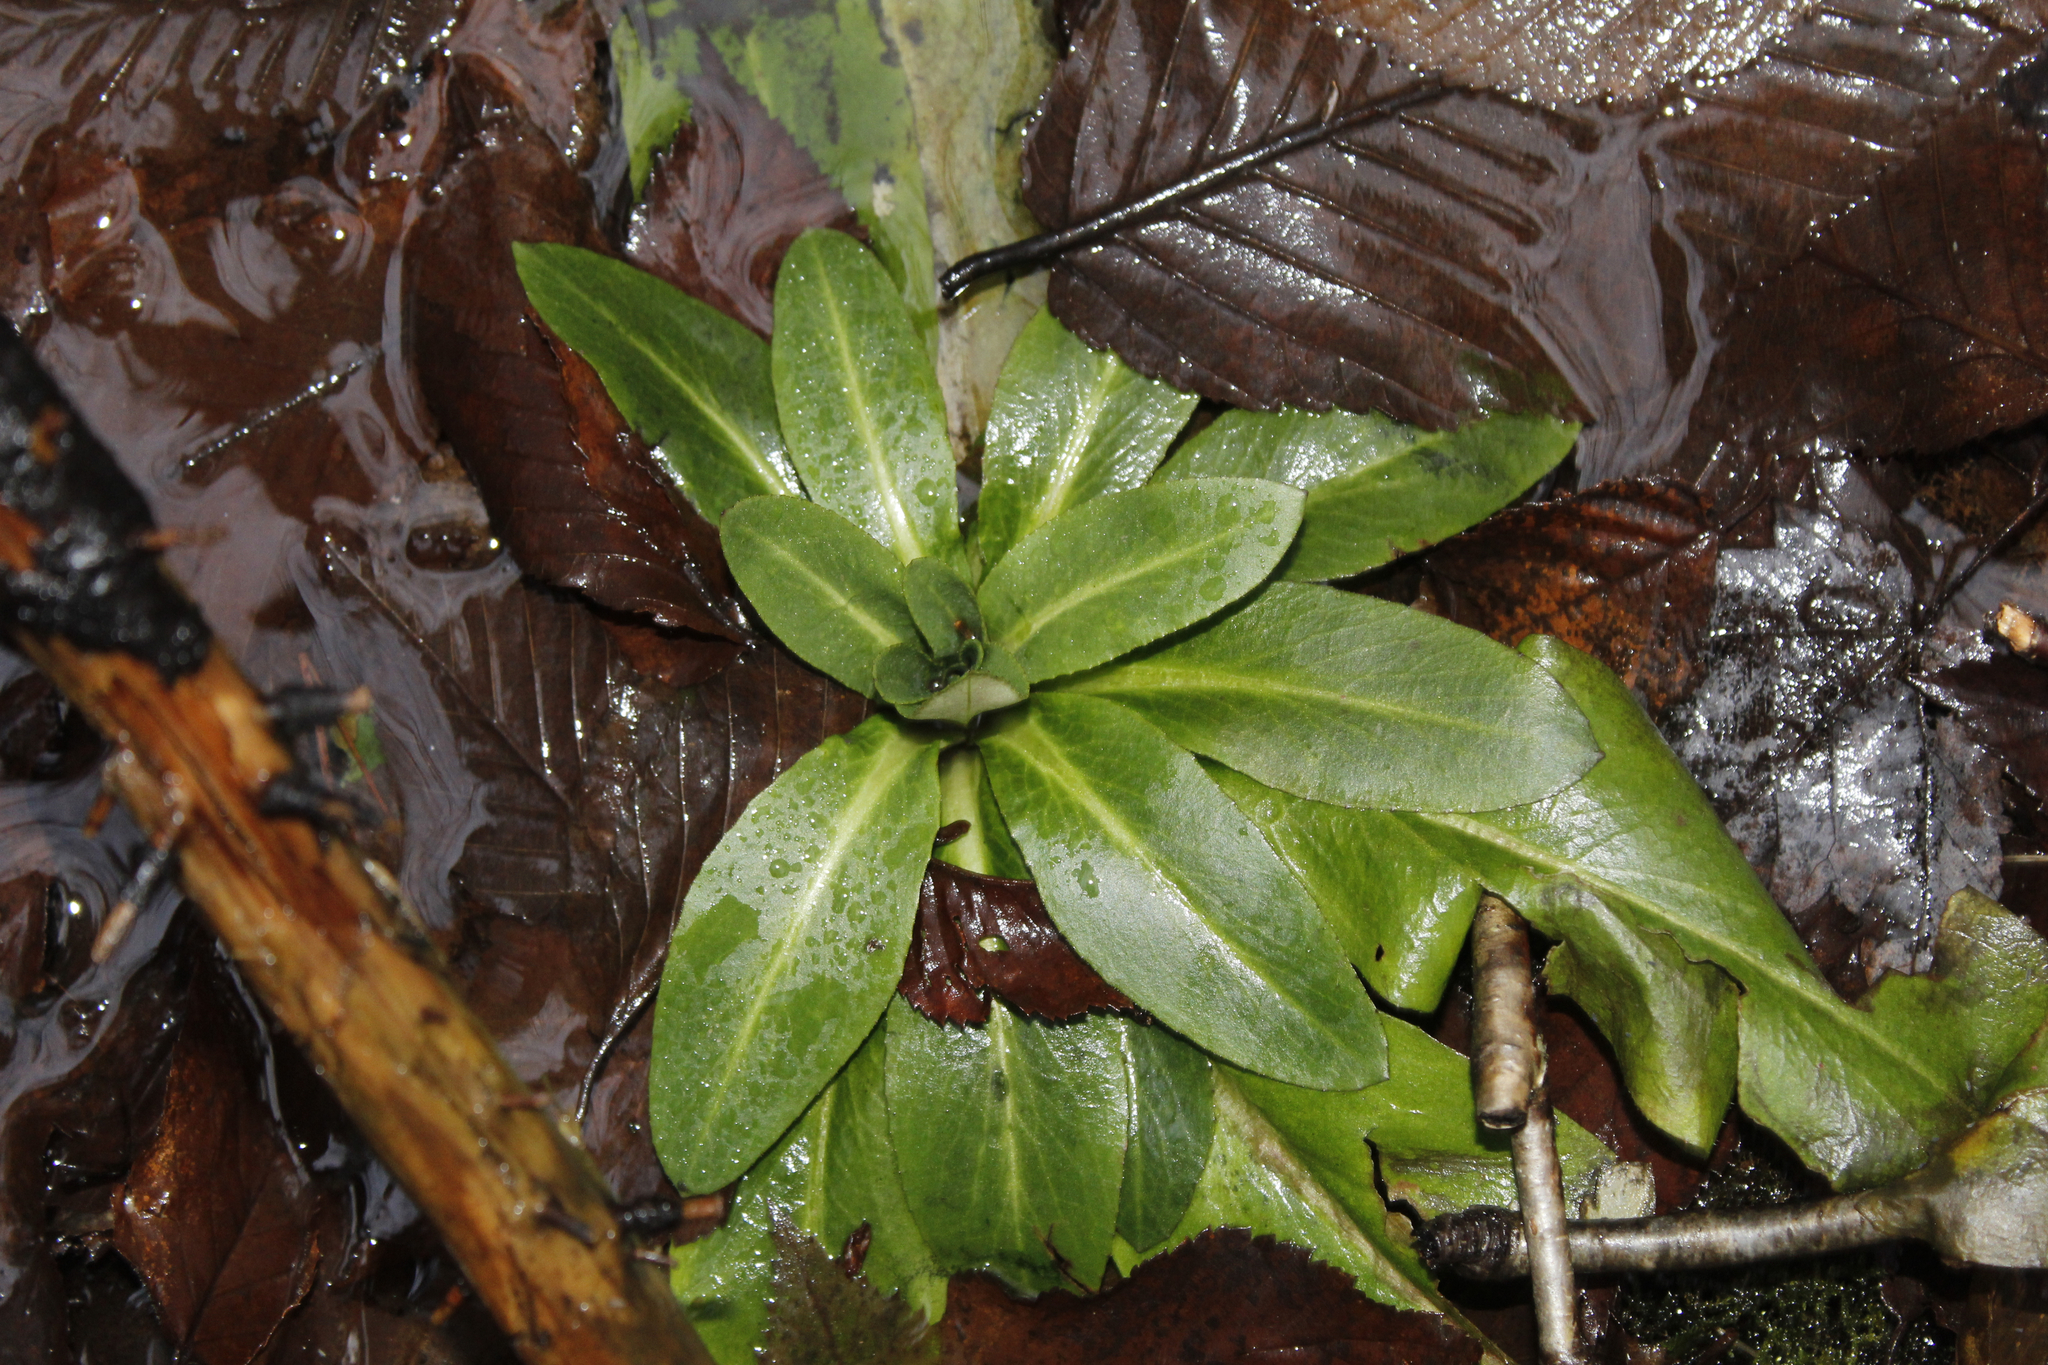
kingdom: Plantae
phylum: Tracheophyta
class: Magnoliopsida
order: Saxifragales
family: Saxifragaceae
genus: Micranthes
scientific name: Micranthes pensylvanica
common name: Marsh saxifrage
